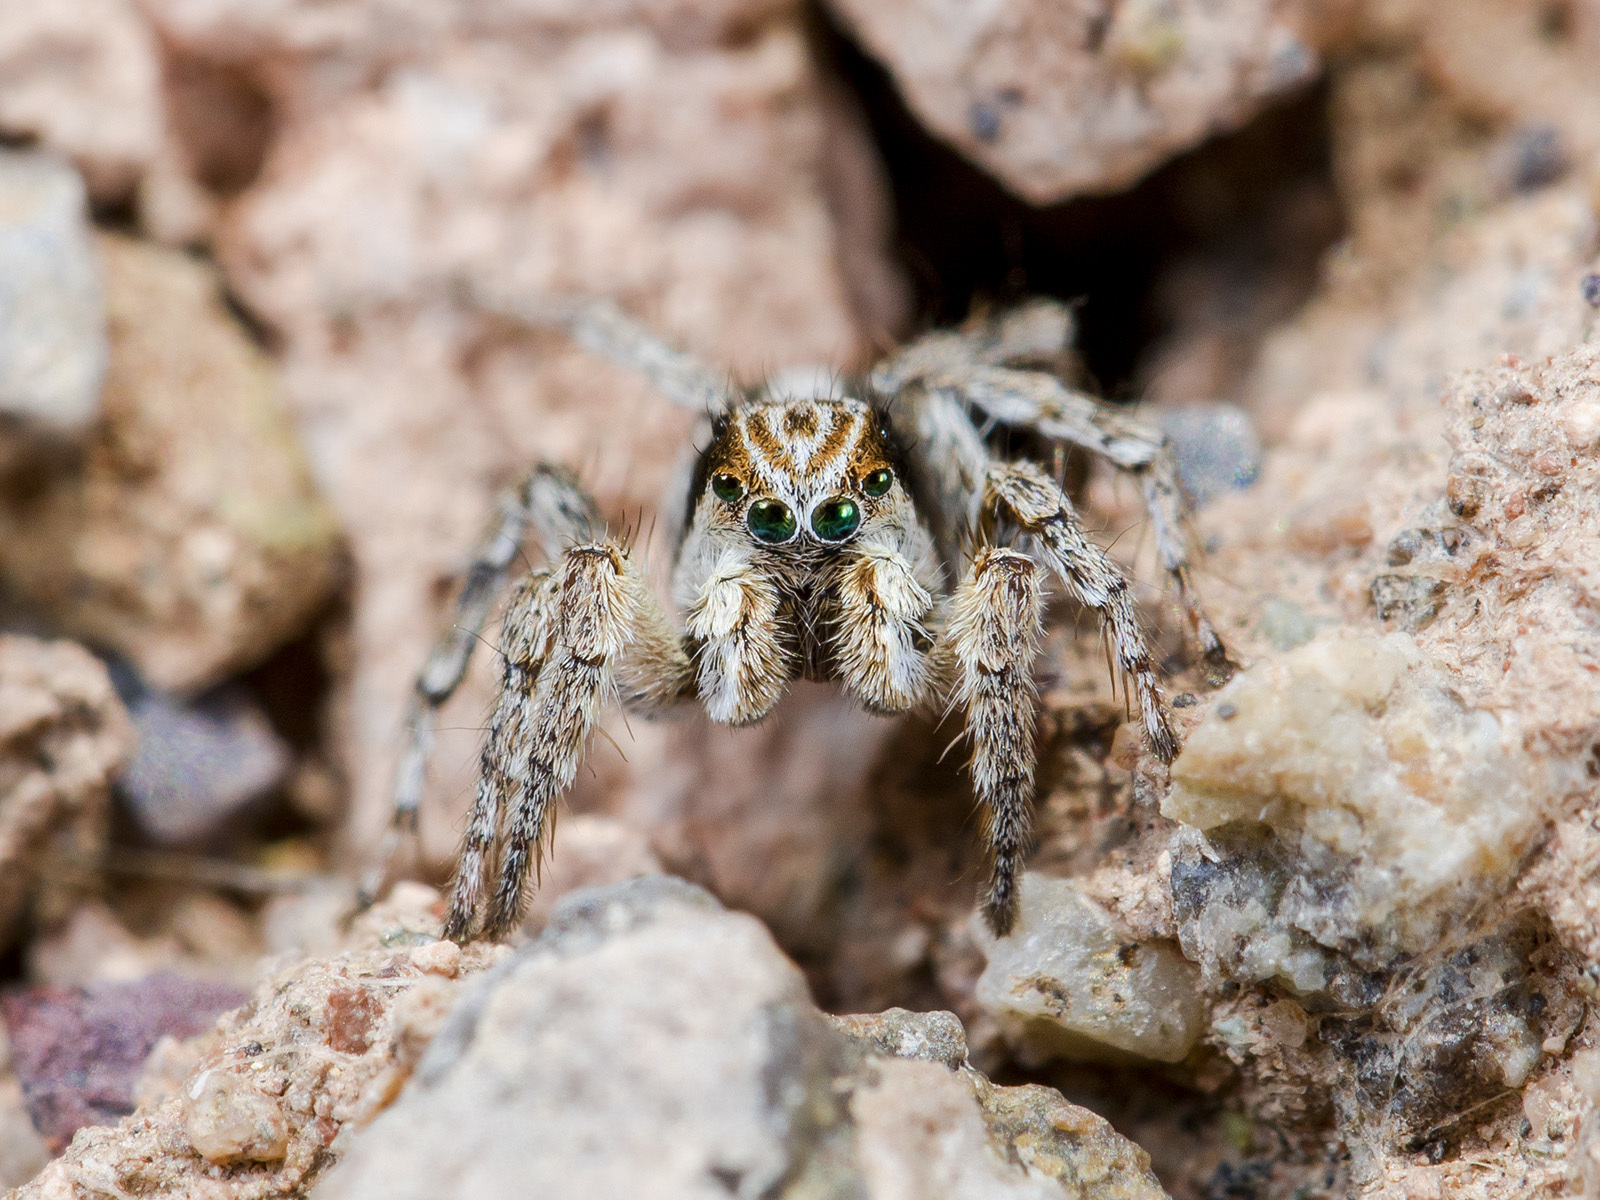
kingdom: Animalia
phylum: Arthropoda
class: Arachnida
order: Araneae
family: Salticidae
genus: Aelurillus
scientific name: Aelurillus nenilini
